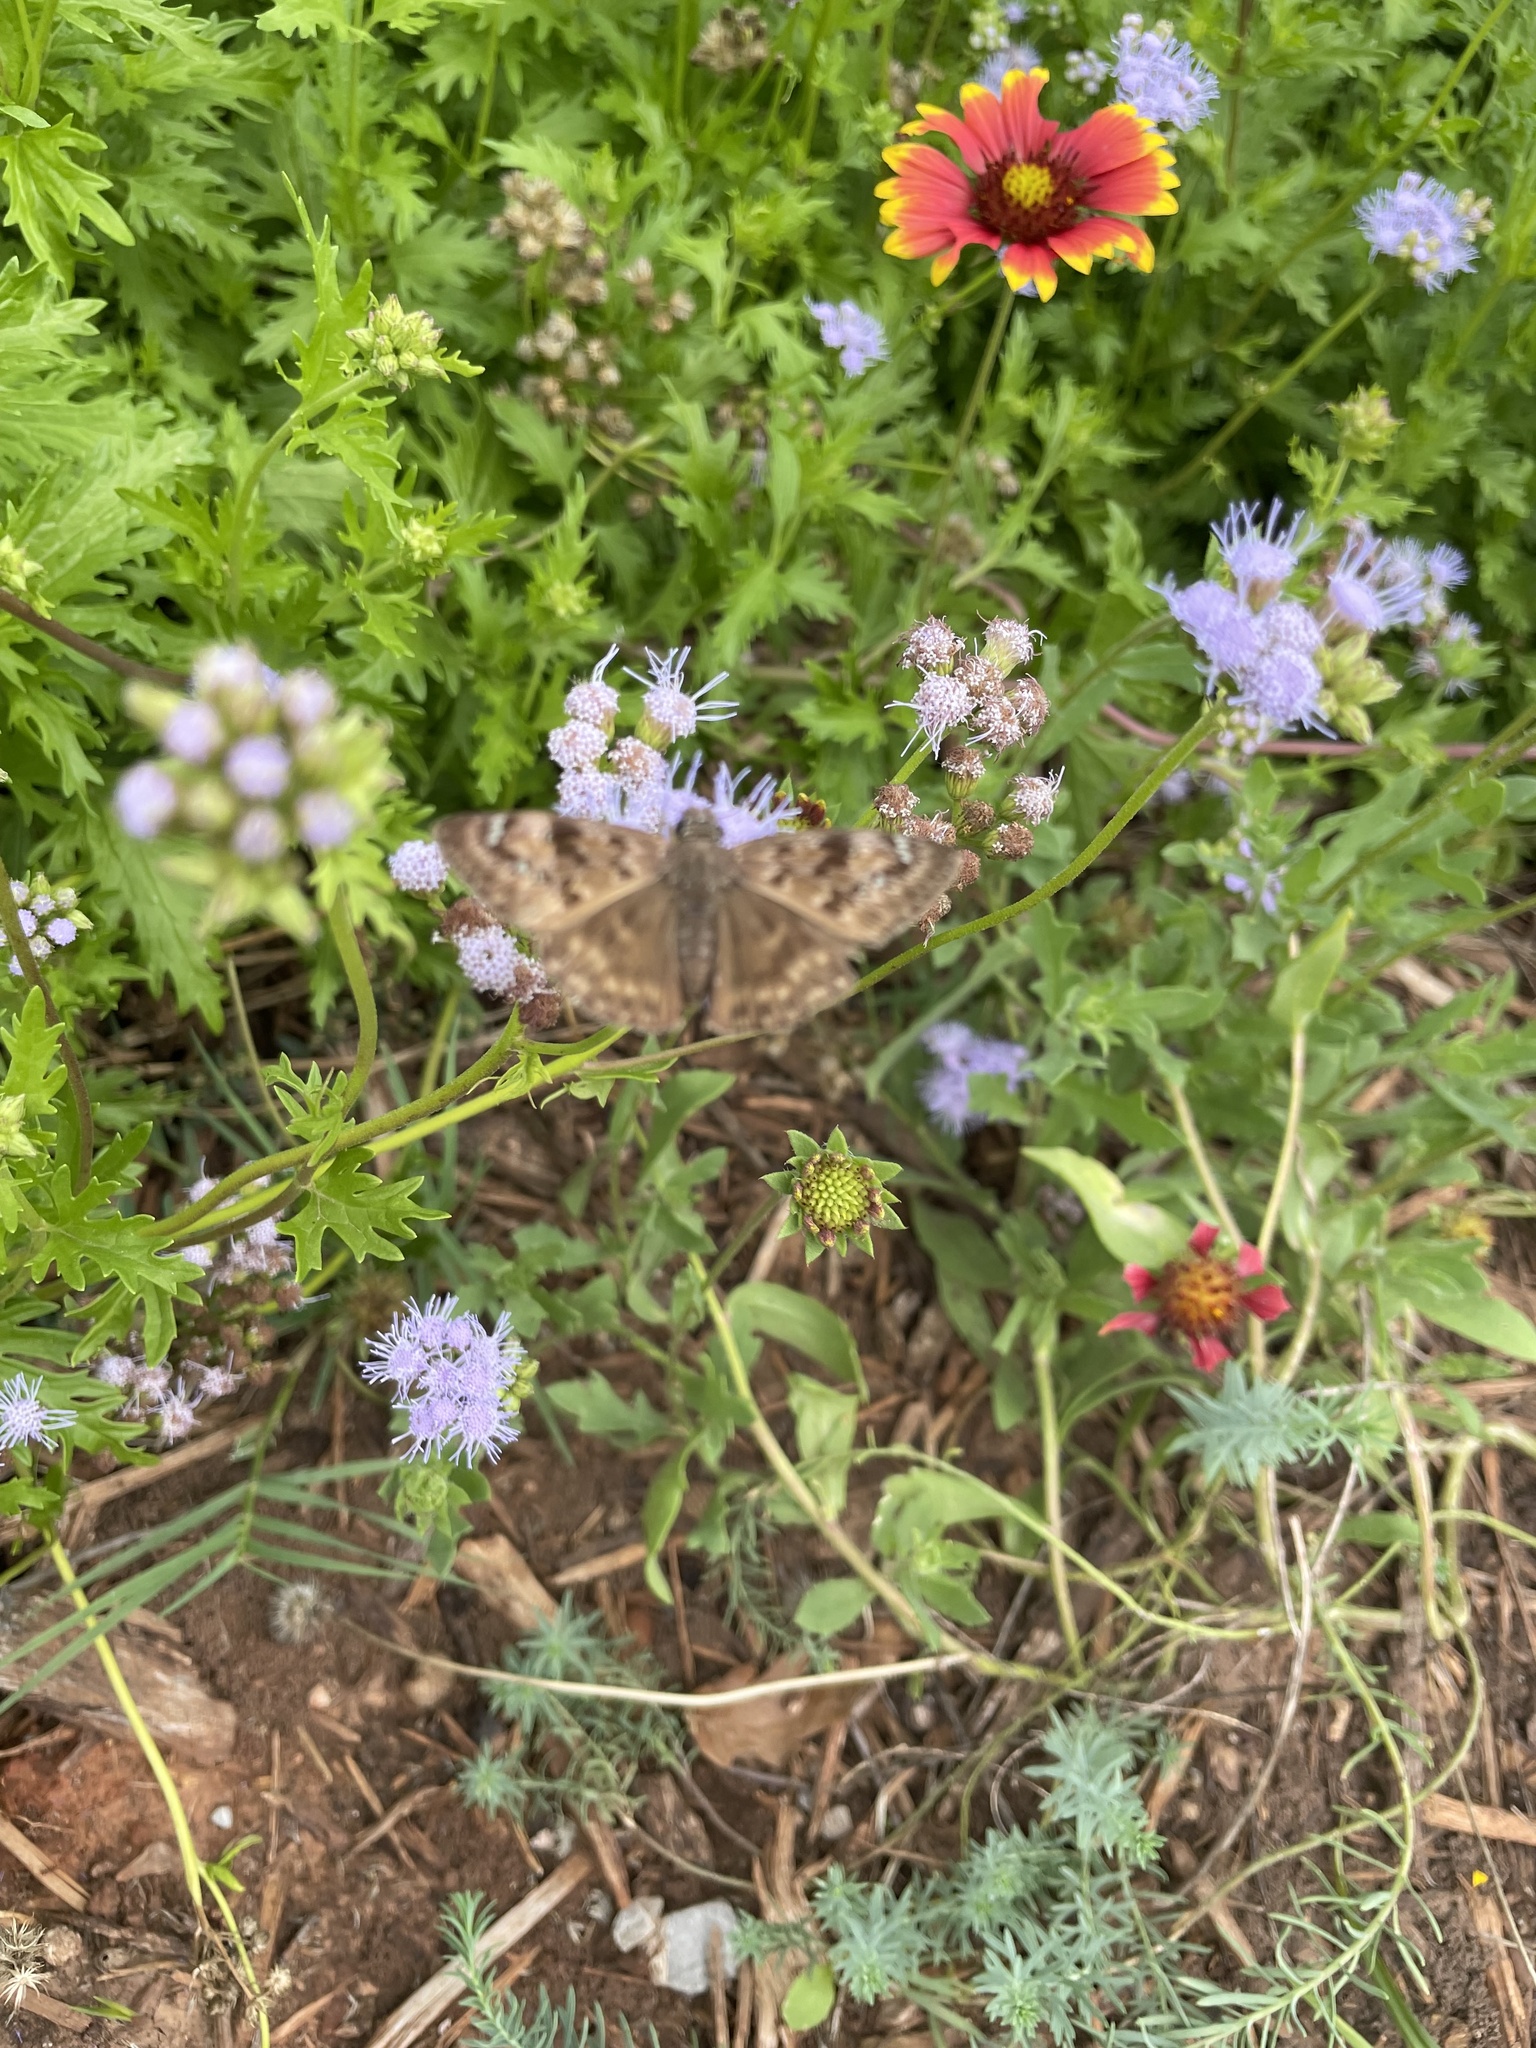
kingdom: Animalia
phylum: Arthropoda
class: Insecta
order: Lepidoptera
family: Hesperiidae
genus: Erynnis
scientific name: Erynnis horatius
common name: Horace's duskywing
